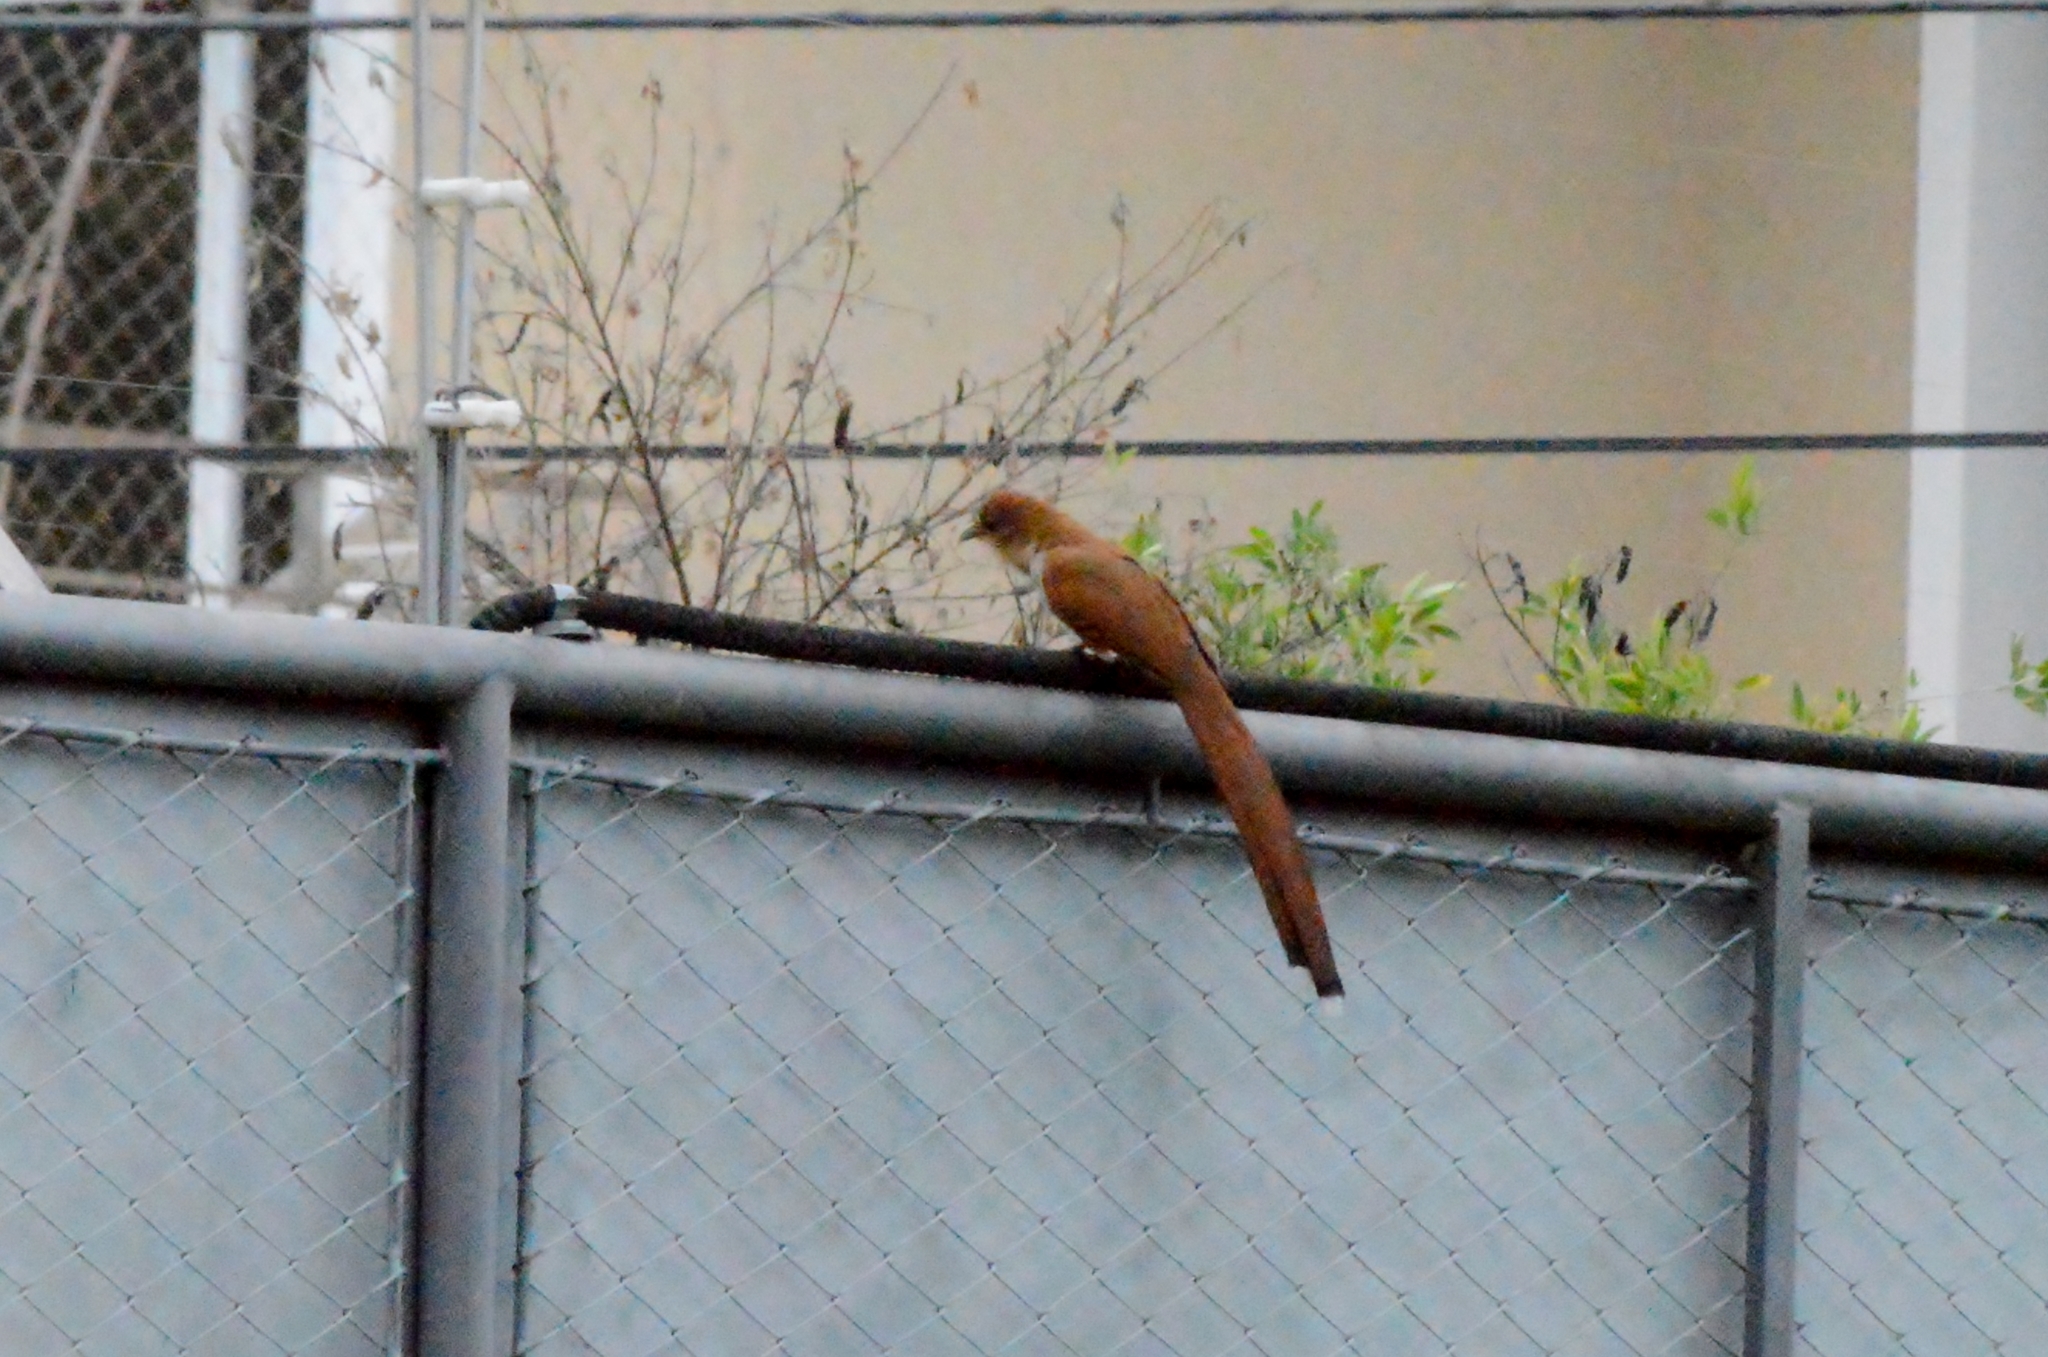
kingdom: Animalia
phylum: Chordata
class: Aves
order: Cuculiformes
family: Cuculidae
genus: Piaya
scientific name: Piaya cayana
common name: Squirrel cuckoo
